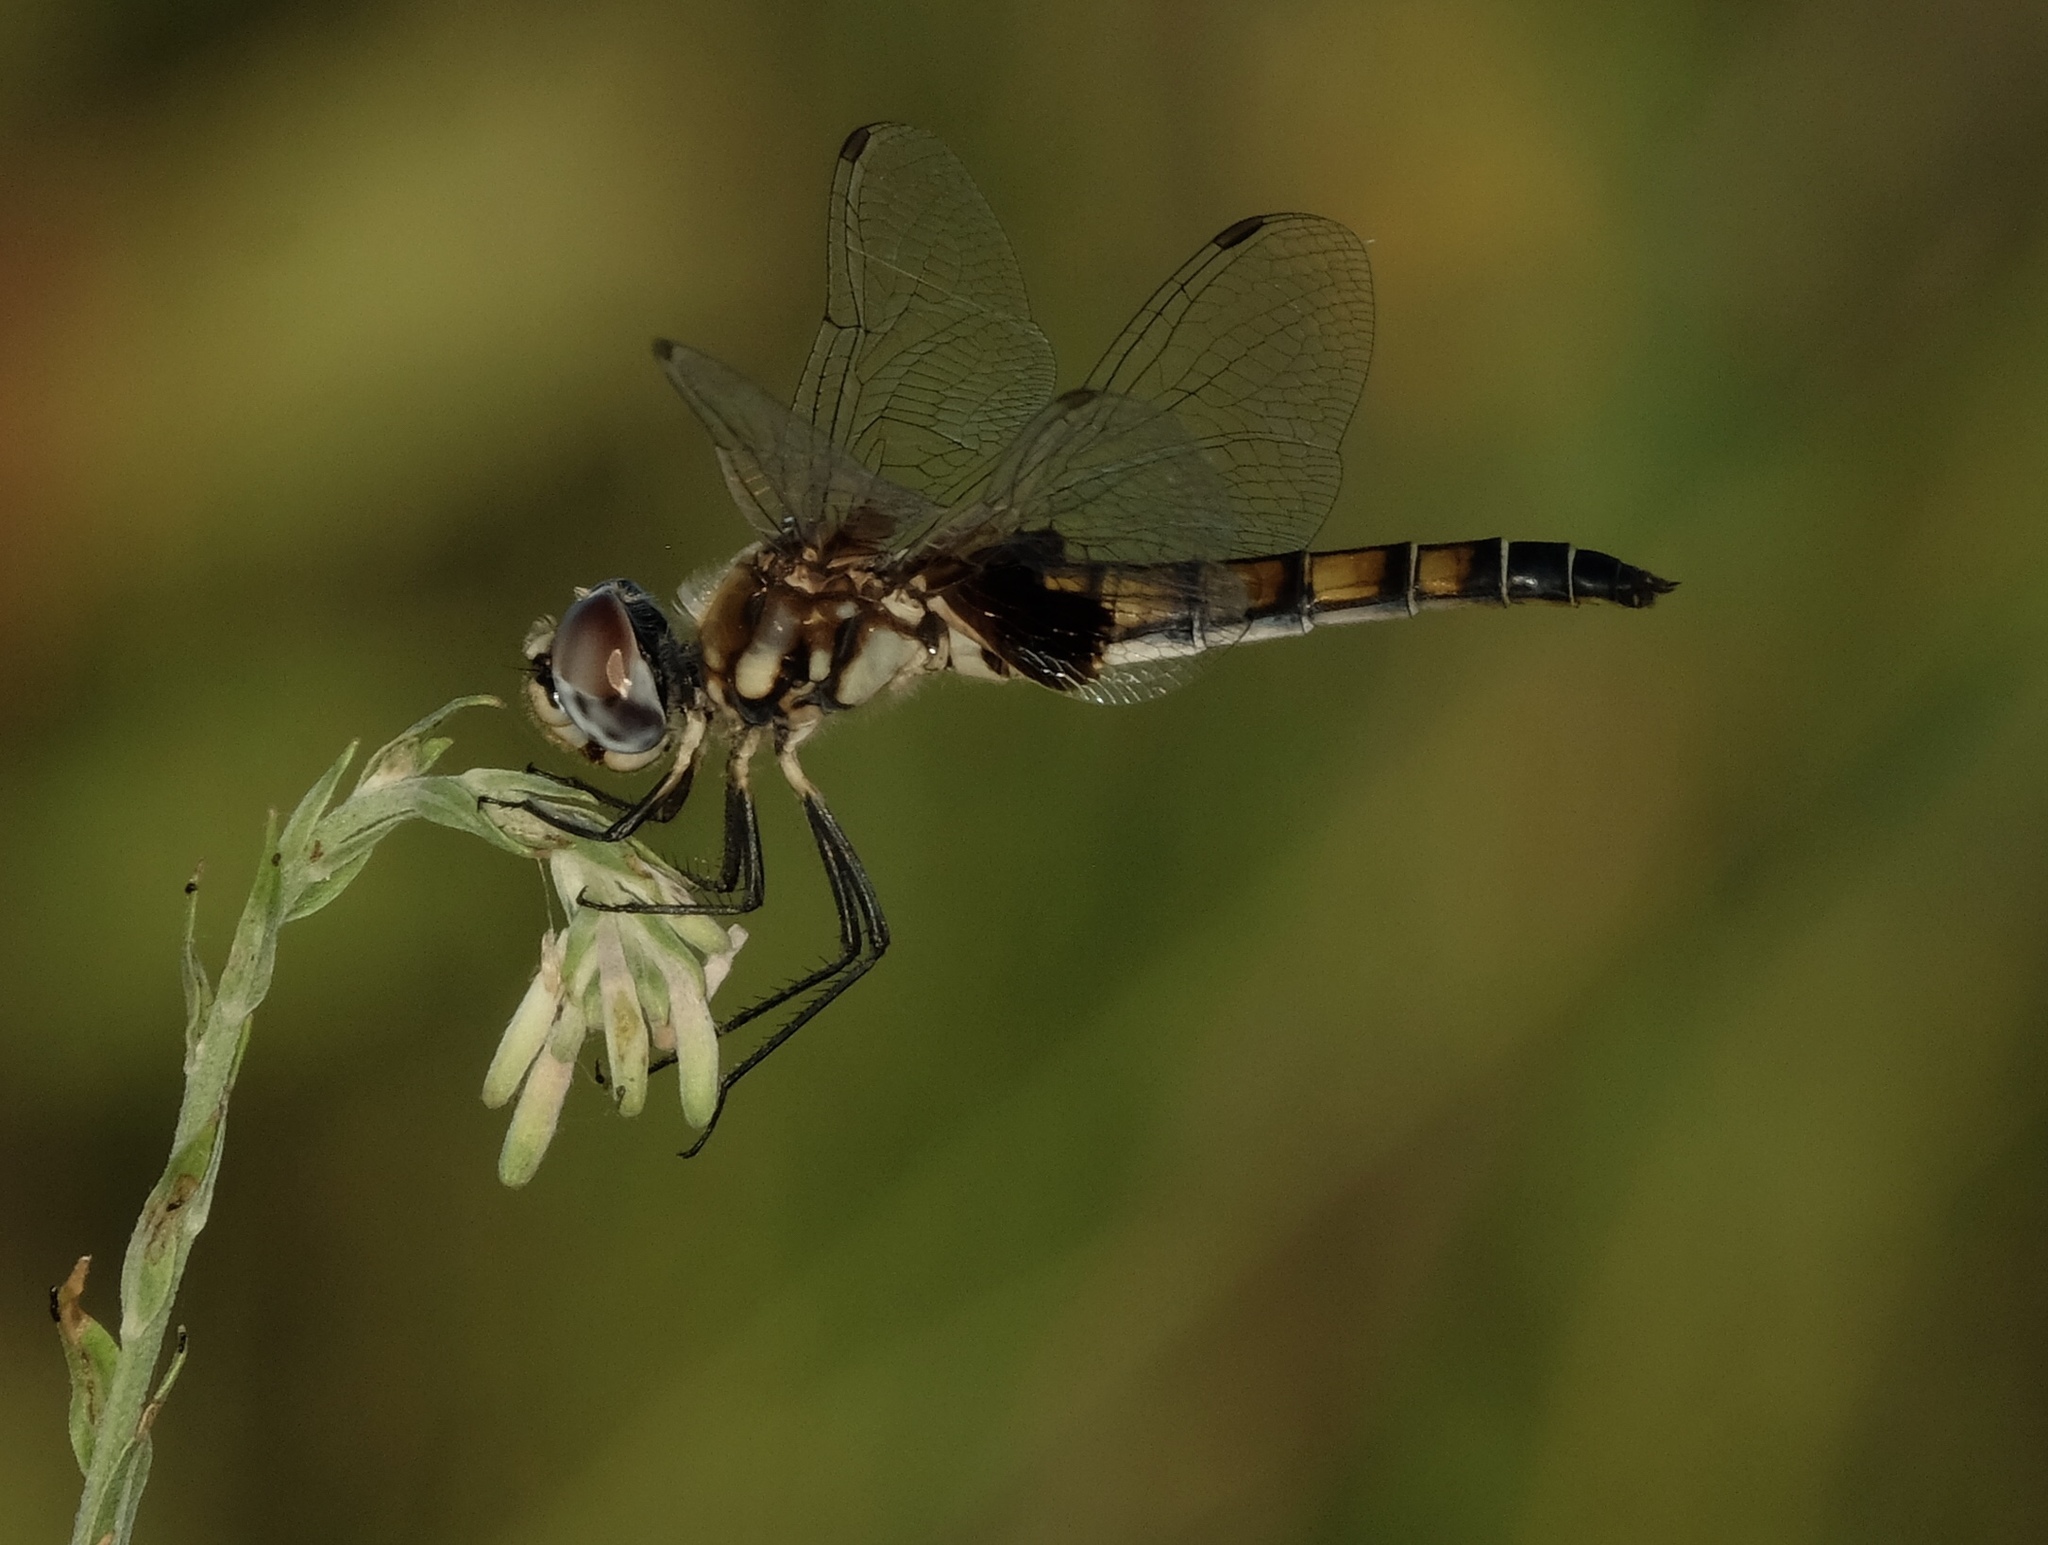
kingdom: Animalia
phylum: Arthropoda
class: Insecta
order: Odonata
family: Libellulidae
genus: Macrodiplax
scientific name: Macrodiplax balteata
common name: Marl pennant
